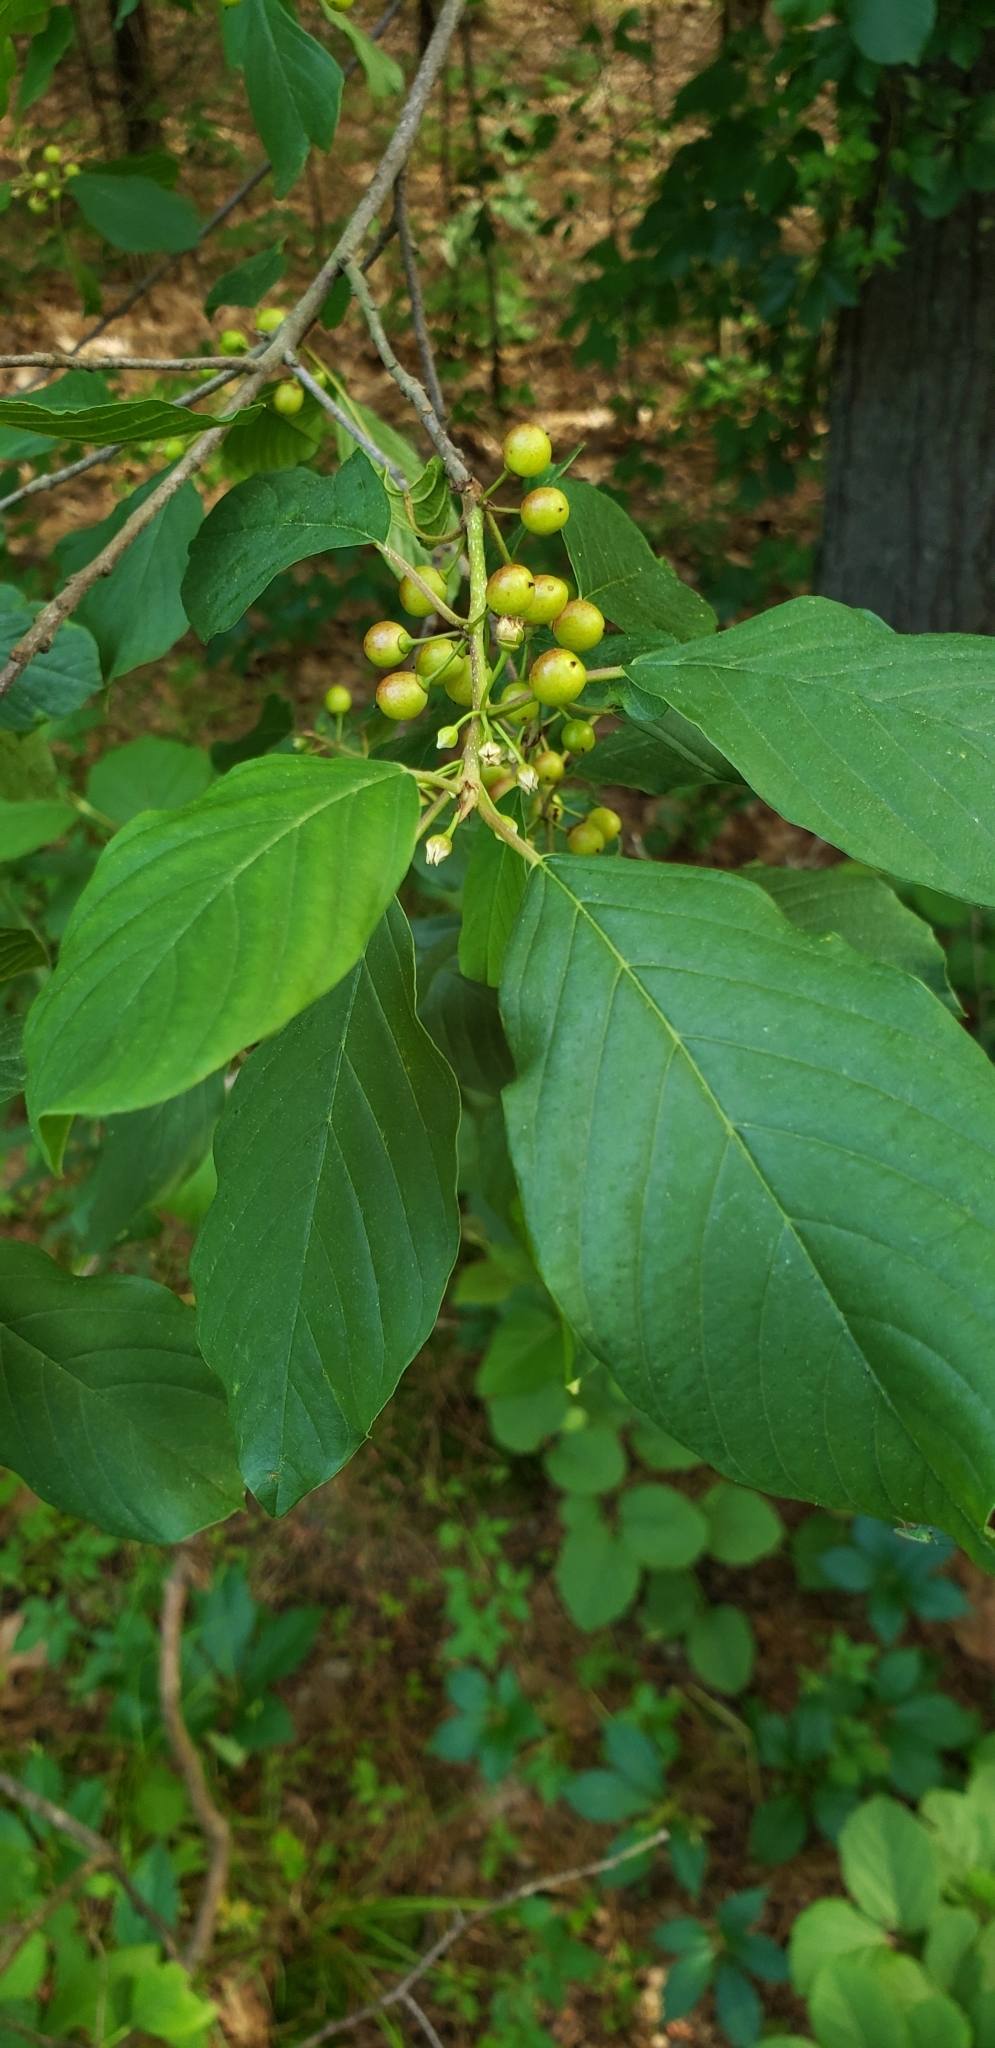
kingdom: Plantae
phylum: Tracheophyta
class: Magnoliopsida
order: Rosales
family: Rhamnaceae
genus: Frangula
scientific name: Frangula alnus
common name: Alder buckthorn
